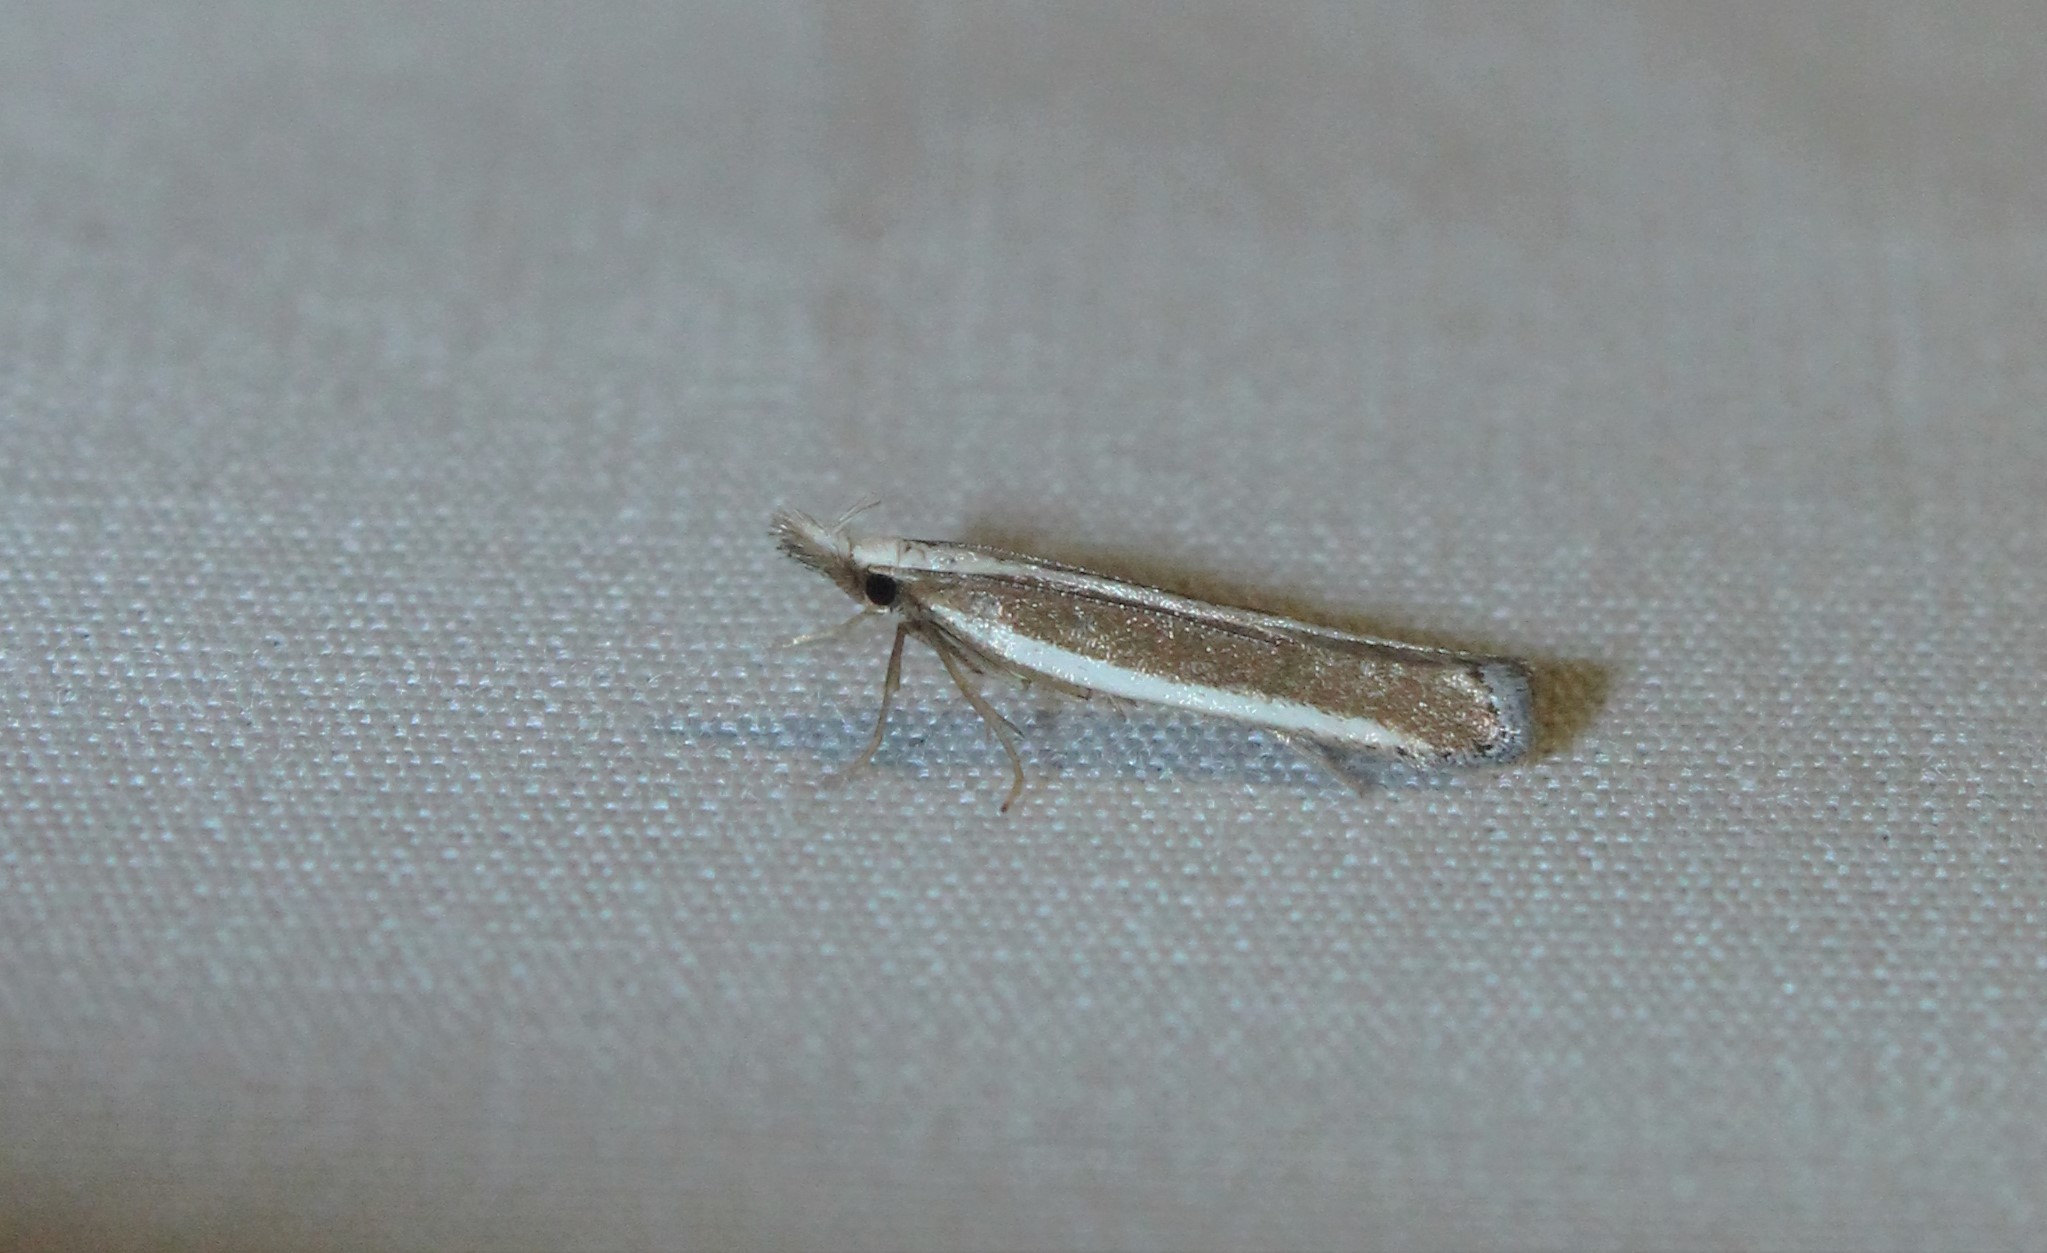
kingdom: Animalia
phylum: Arthropoda
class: Insecta
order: Lepidoptera
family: Gelechiidae
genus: Dichomeris
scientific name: Dichomeris marginella
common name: Juniper webworm
